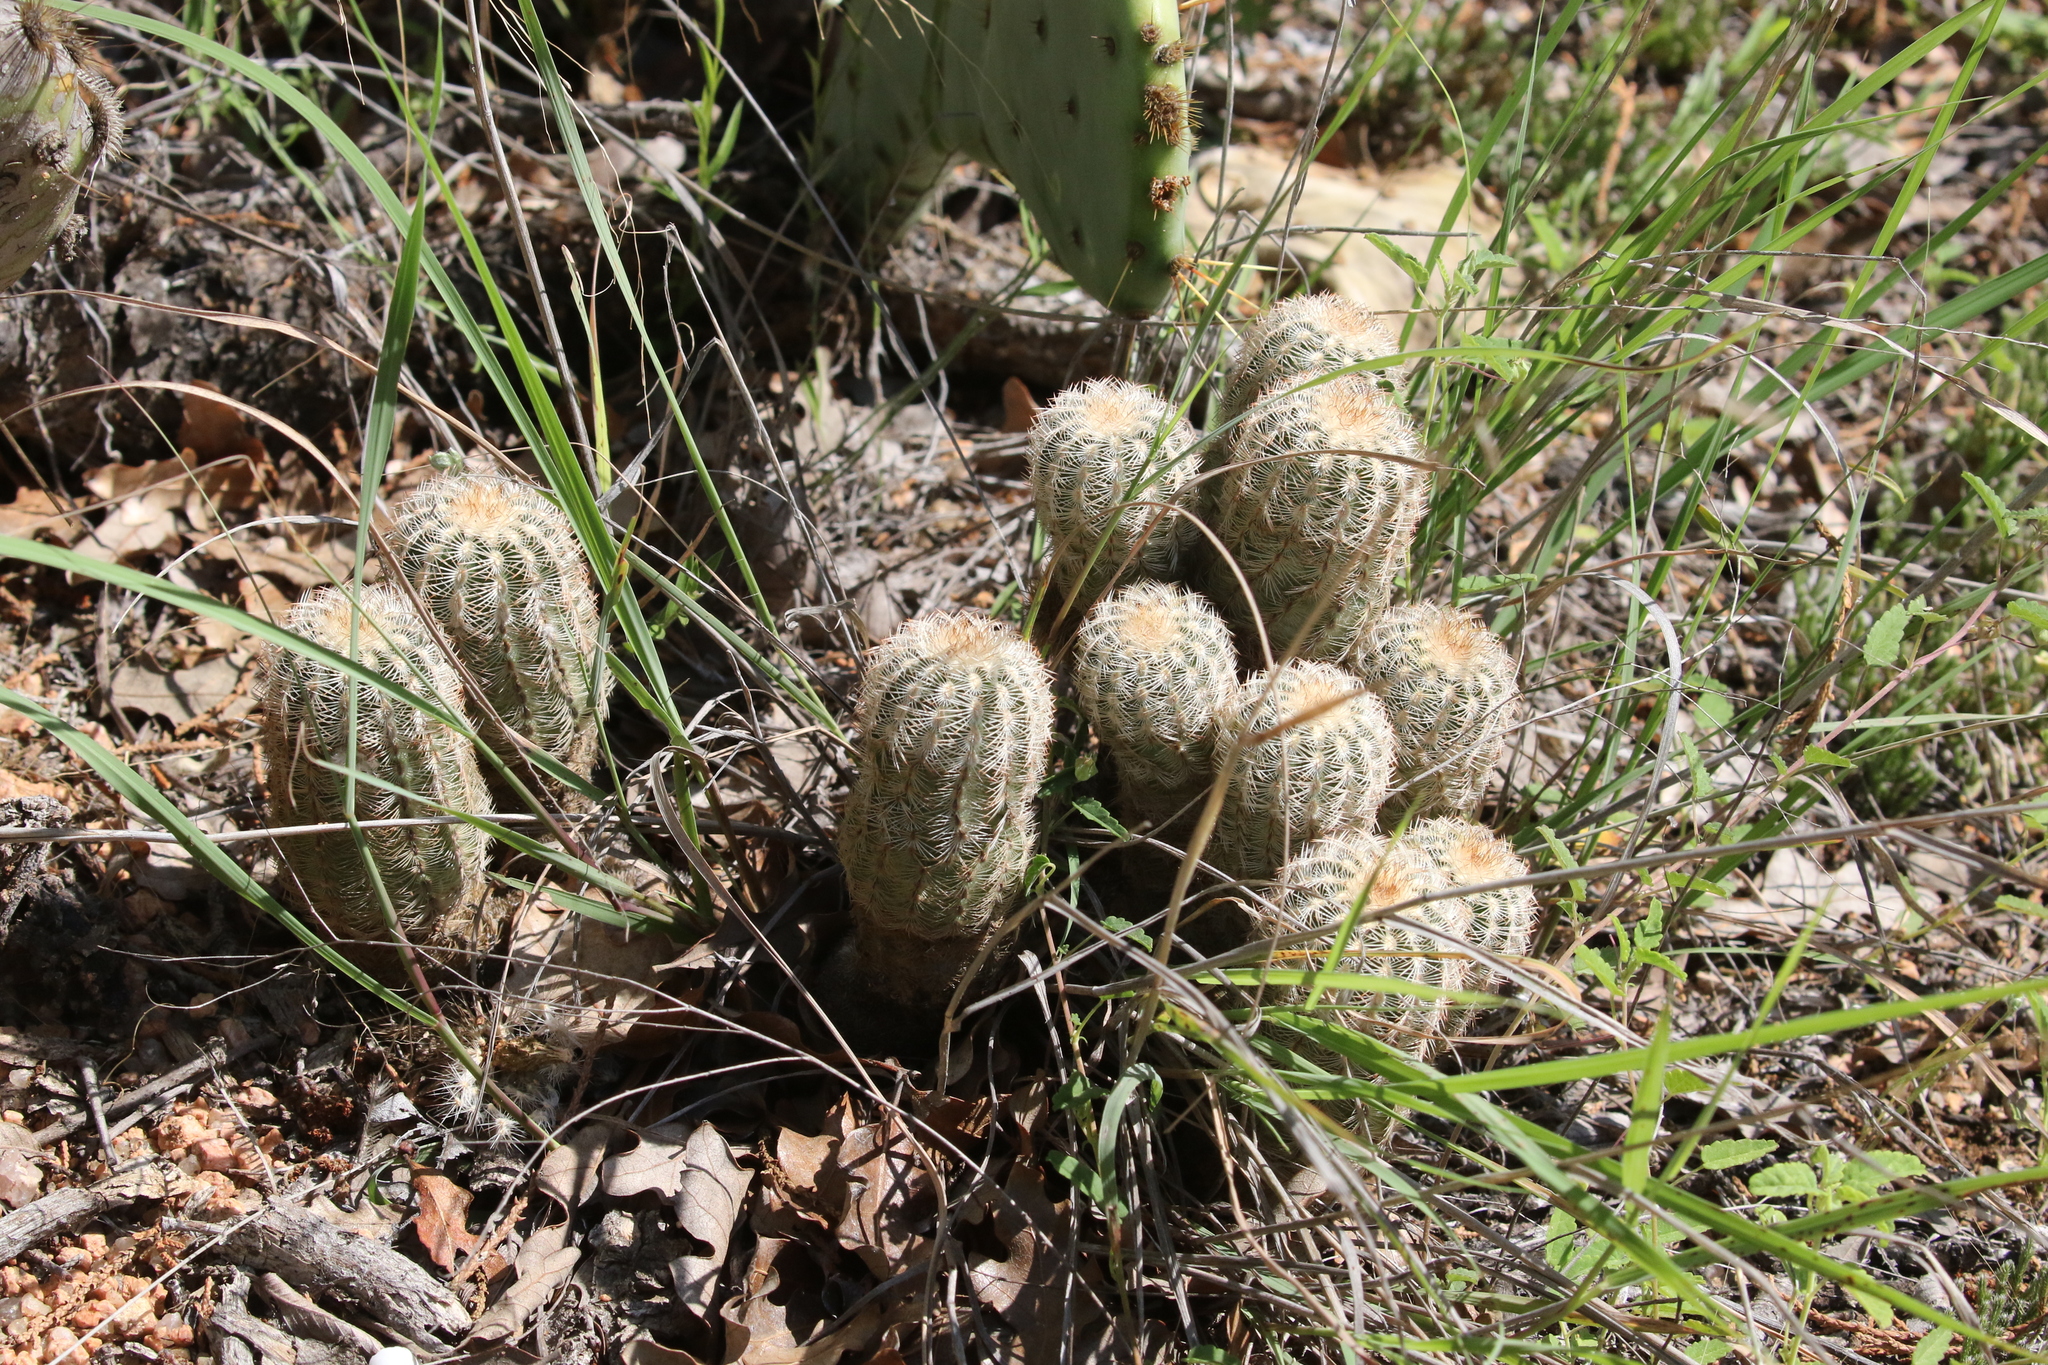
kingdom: Plantae
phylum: Tracheophyta
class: Magnoliopsida
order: Caryophyllales
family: Cactaceae
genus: Echinocereus
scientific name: Echinocereus reichenbachii
